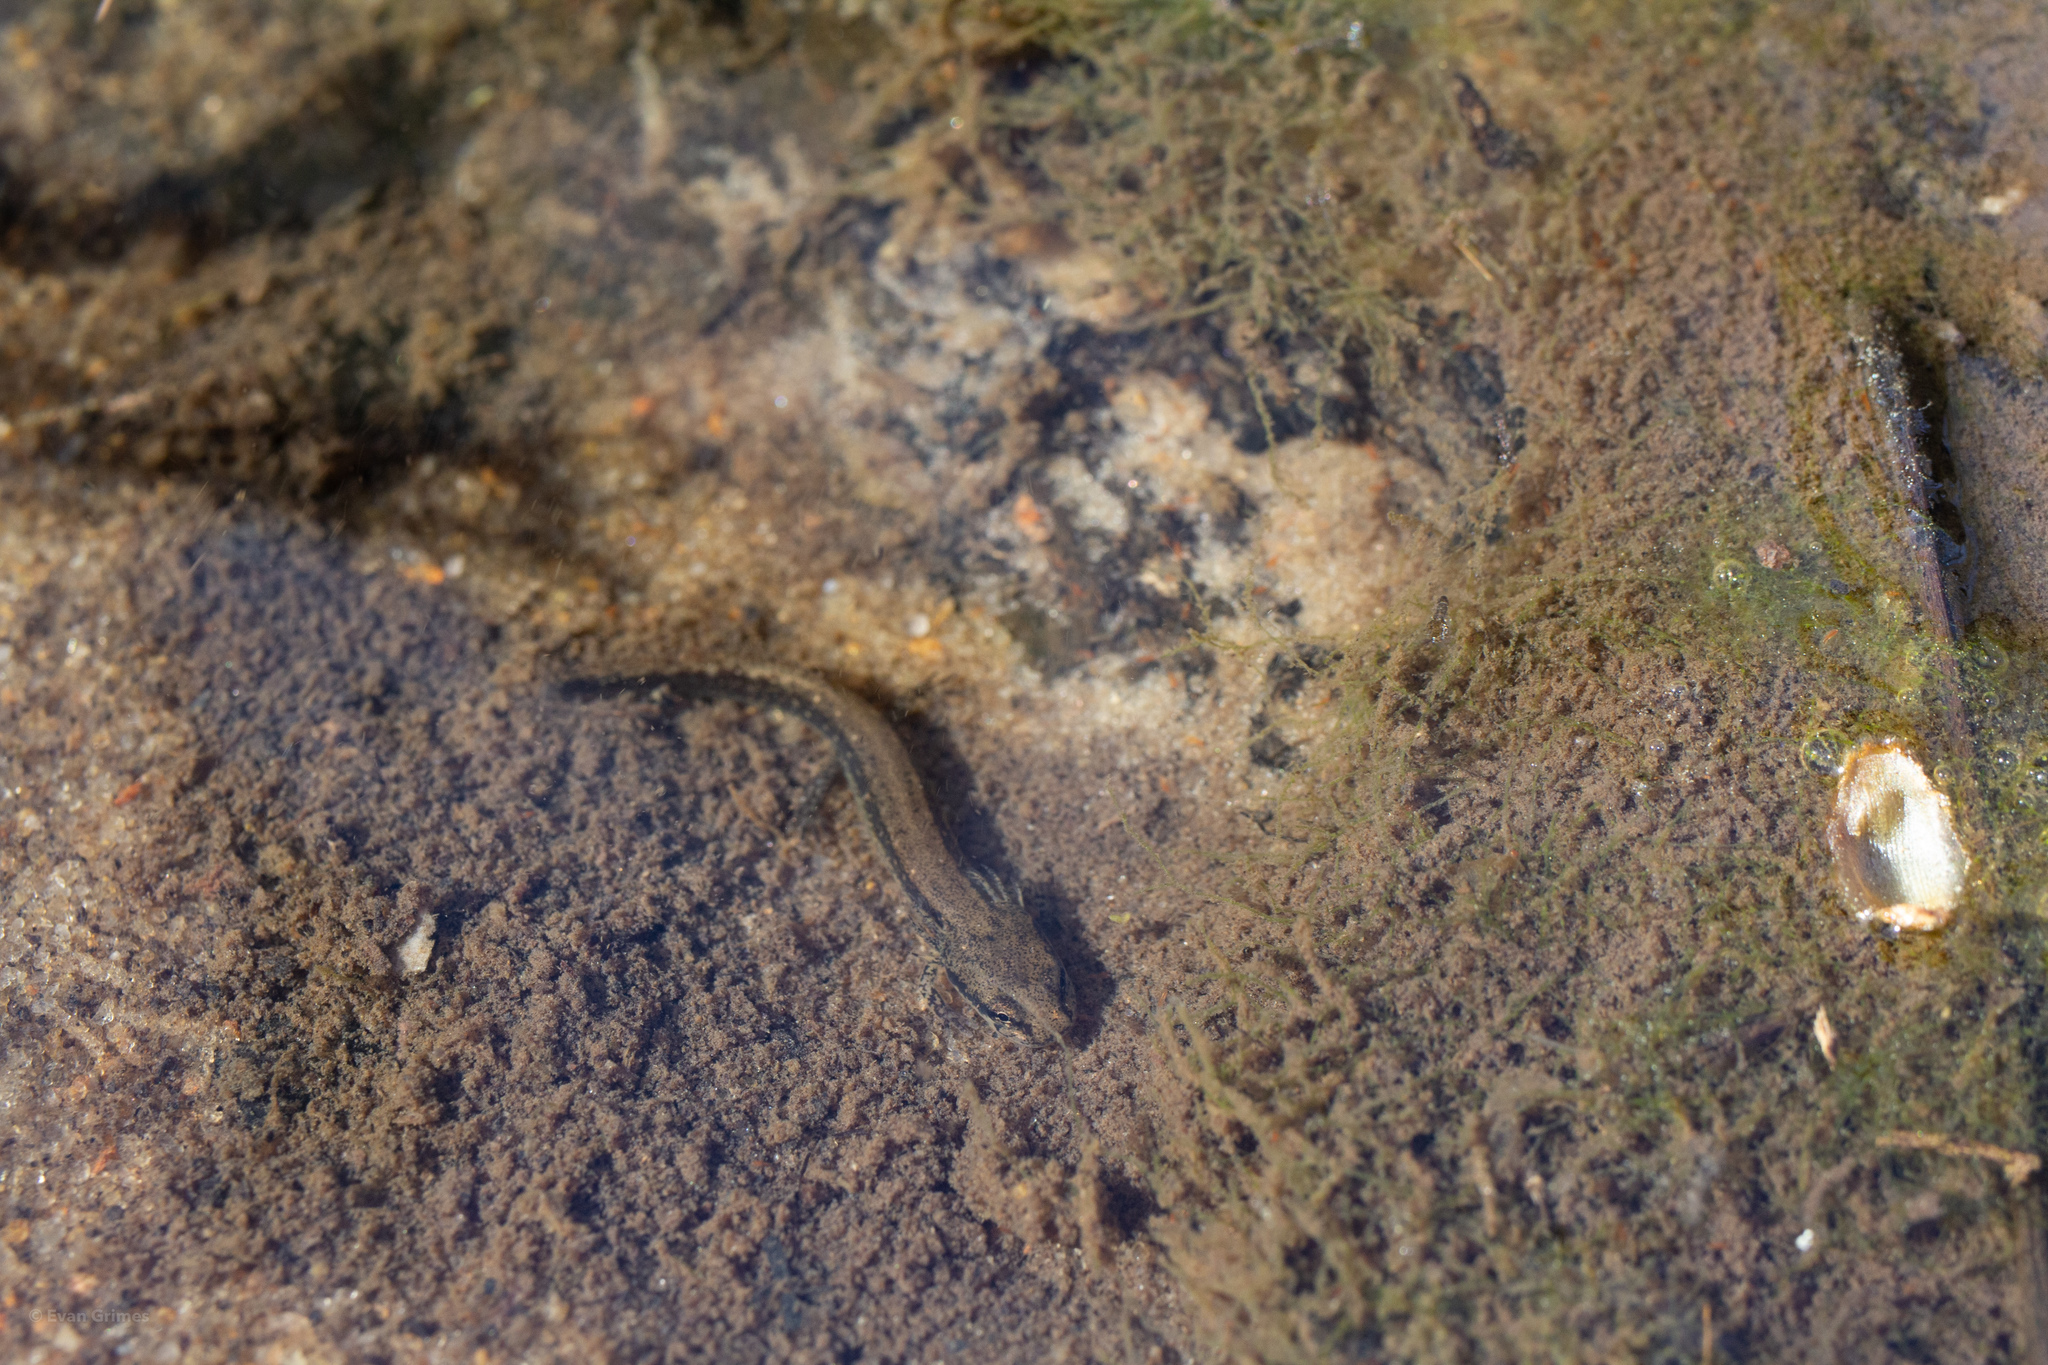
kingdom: Animalia
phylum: Chordata
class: Amphibia
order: Caudata
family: Plethodontidae
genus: Eurycea
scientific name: Eurycea guttolineata
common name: Three-lined salamander
